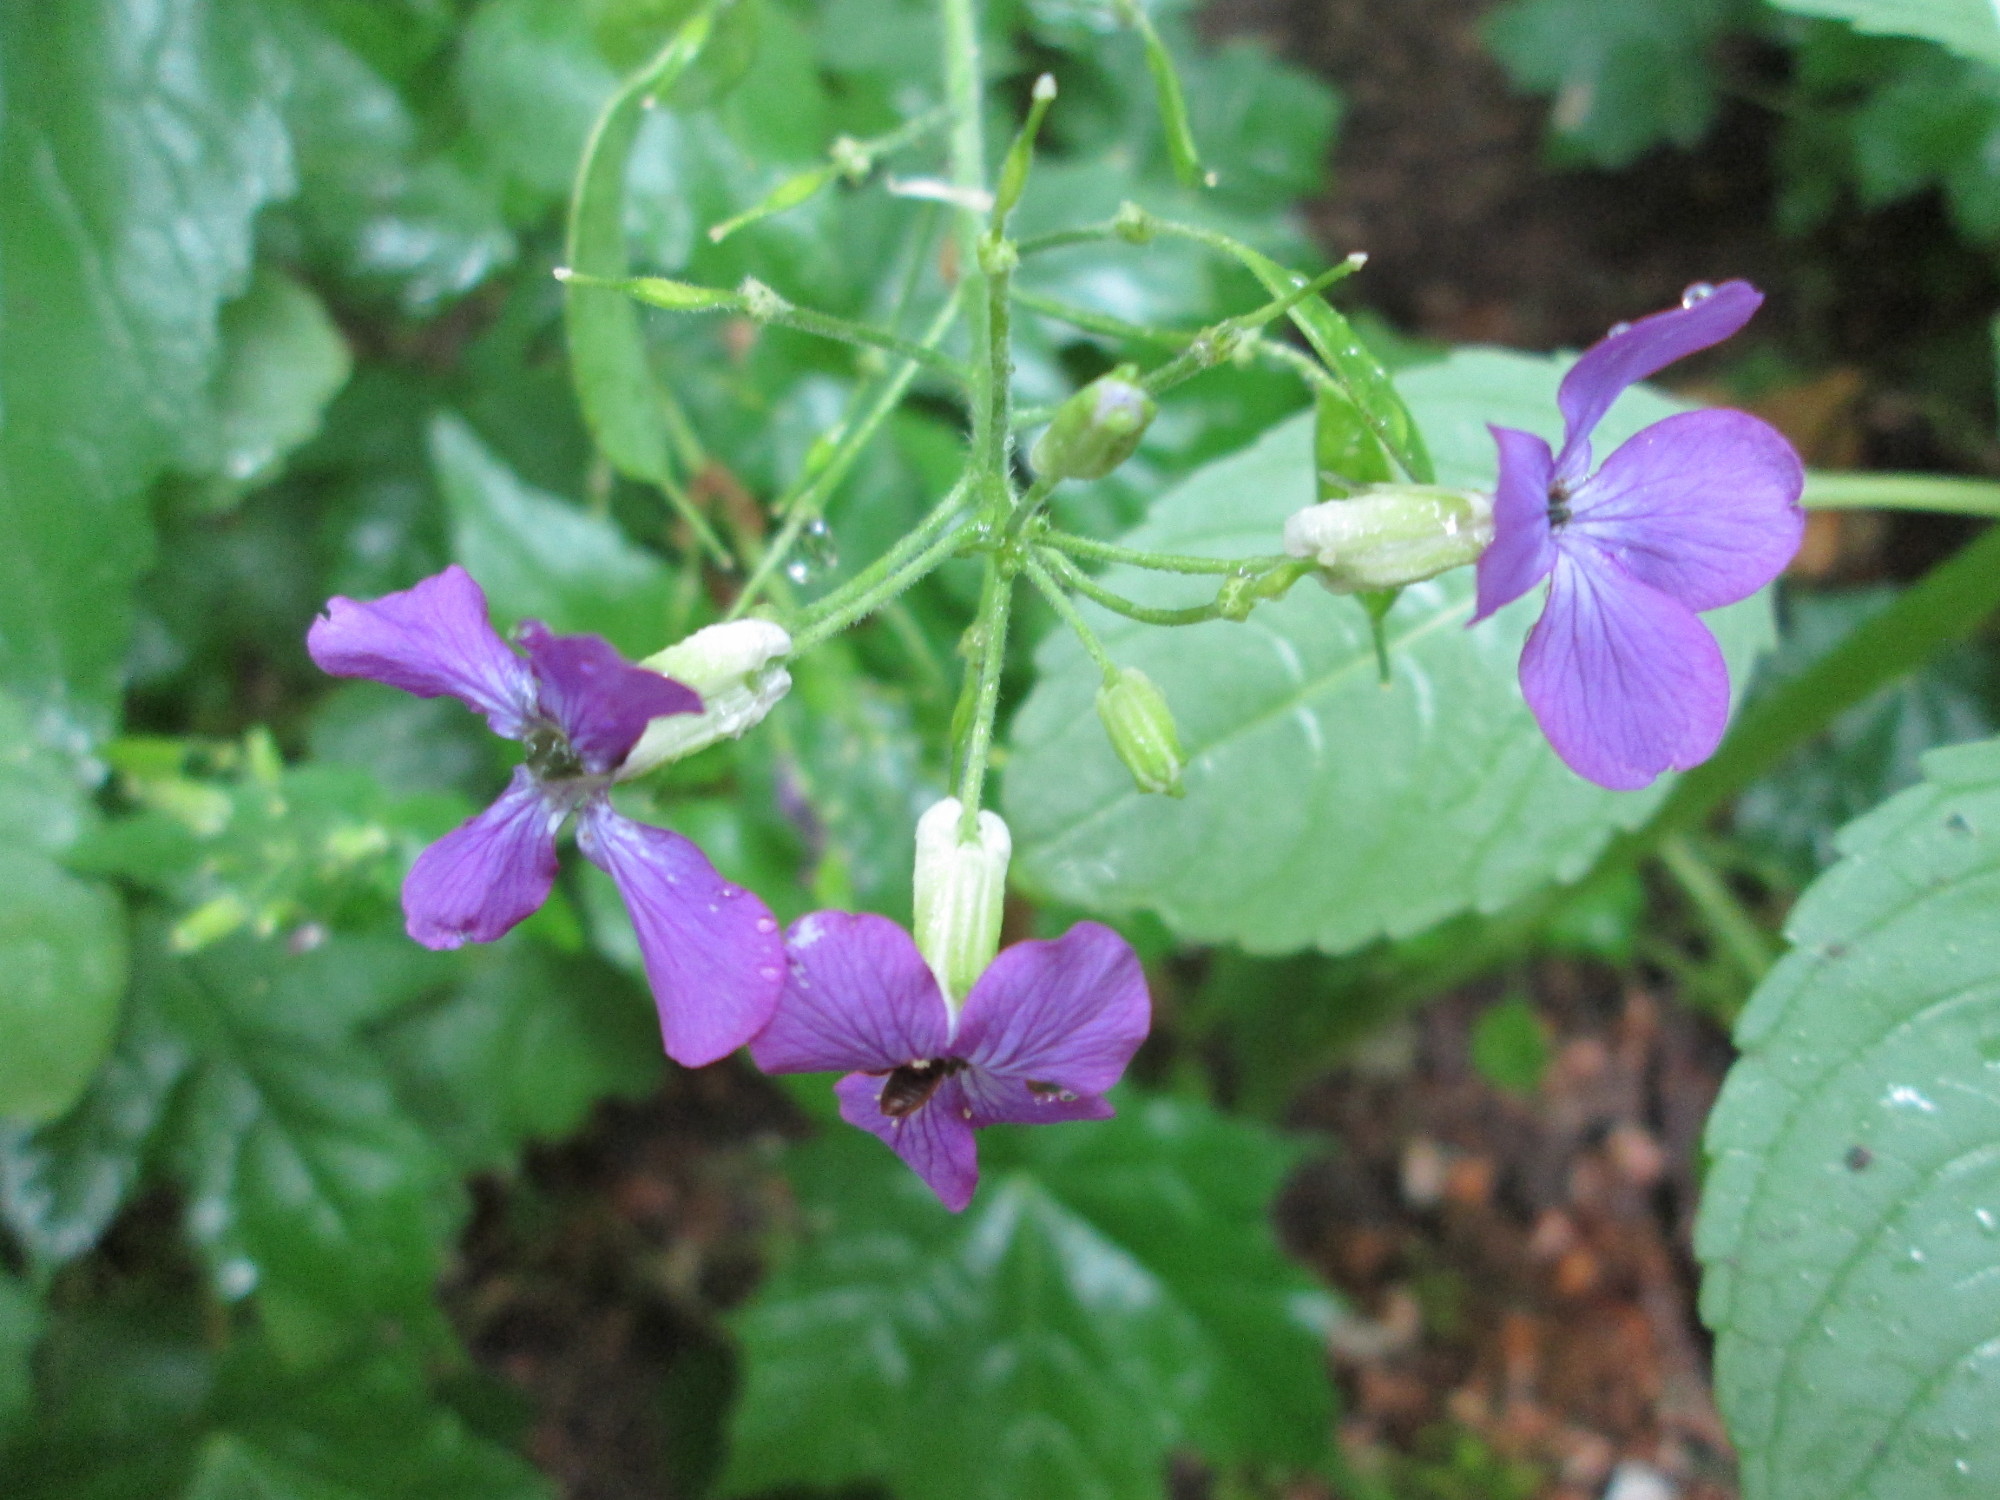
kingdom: Plantae
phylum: Tracheophyta
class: Magnoliopsida
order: Brassicales
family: Brassicaceae
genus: Lunaria
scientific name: Lunaria annua
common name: Honesty
